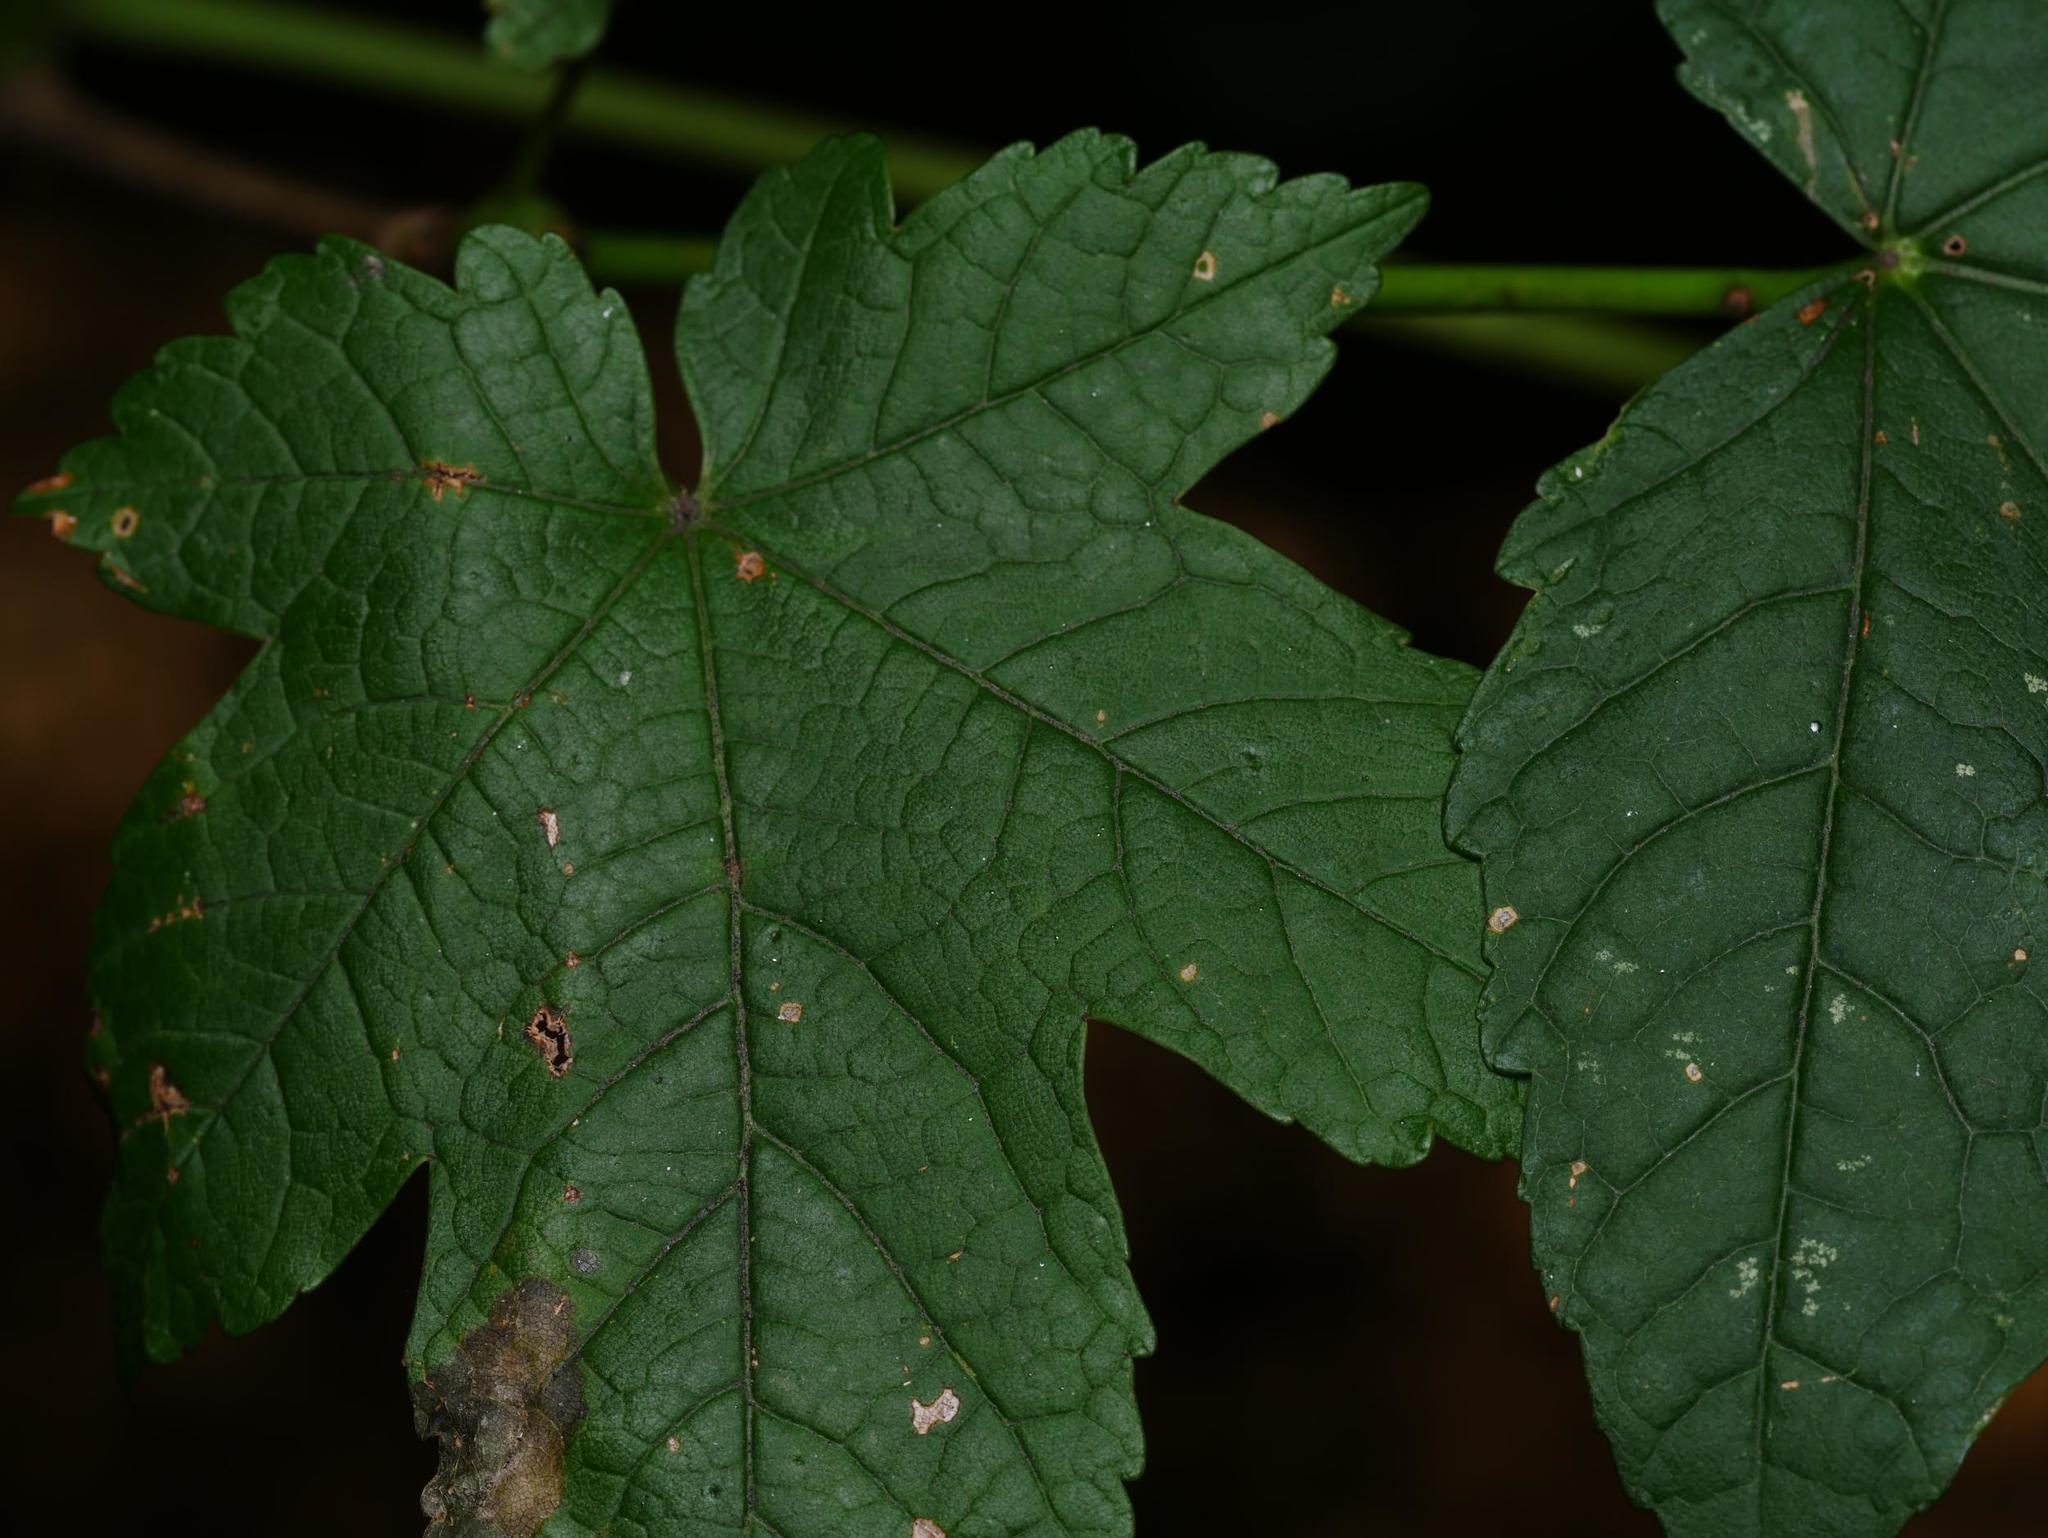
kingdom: Plantae
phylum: Tracheophyta
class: Magnoliopsida
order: Sapindales
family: Sapindaceae
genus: Acer
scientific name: Acer pseudoplatanus
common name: Sycamore
